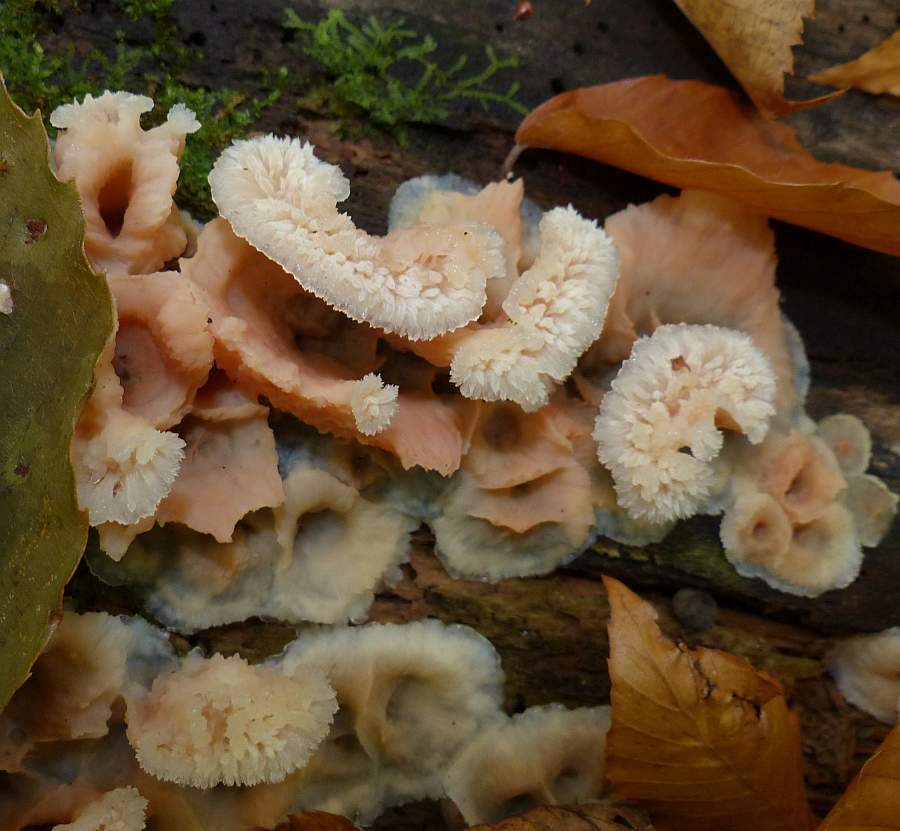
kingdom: Fungi
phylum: Basidiomycota
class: Agaricomycetes
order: Polyporales
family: Meruliaceae
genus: Phlebia
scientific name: Phlebia tremellosa
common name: Jelly rot
